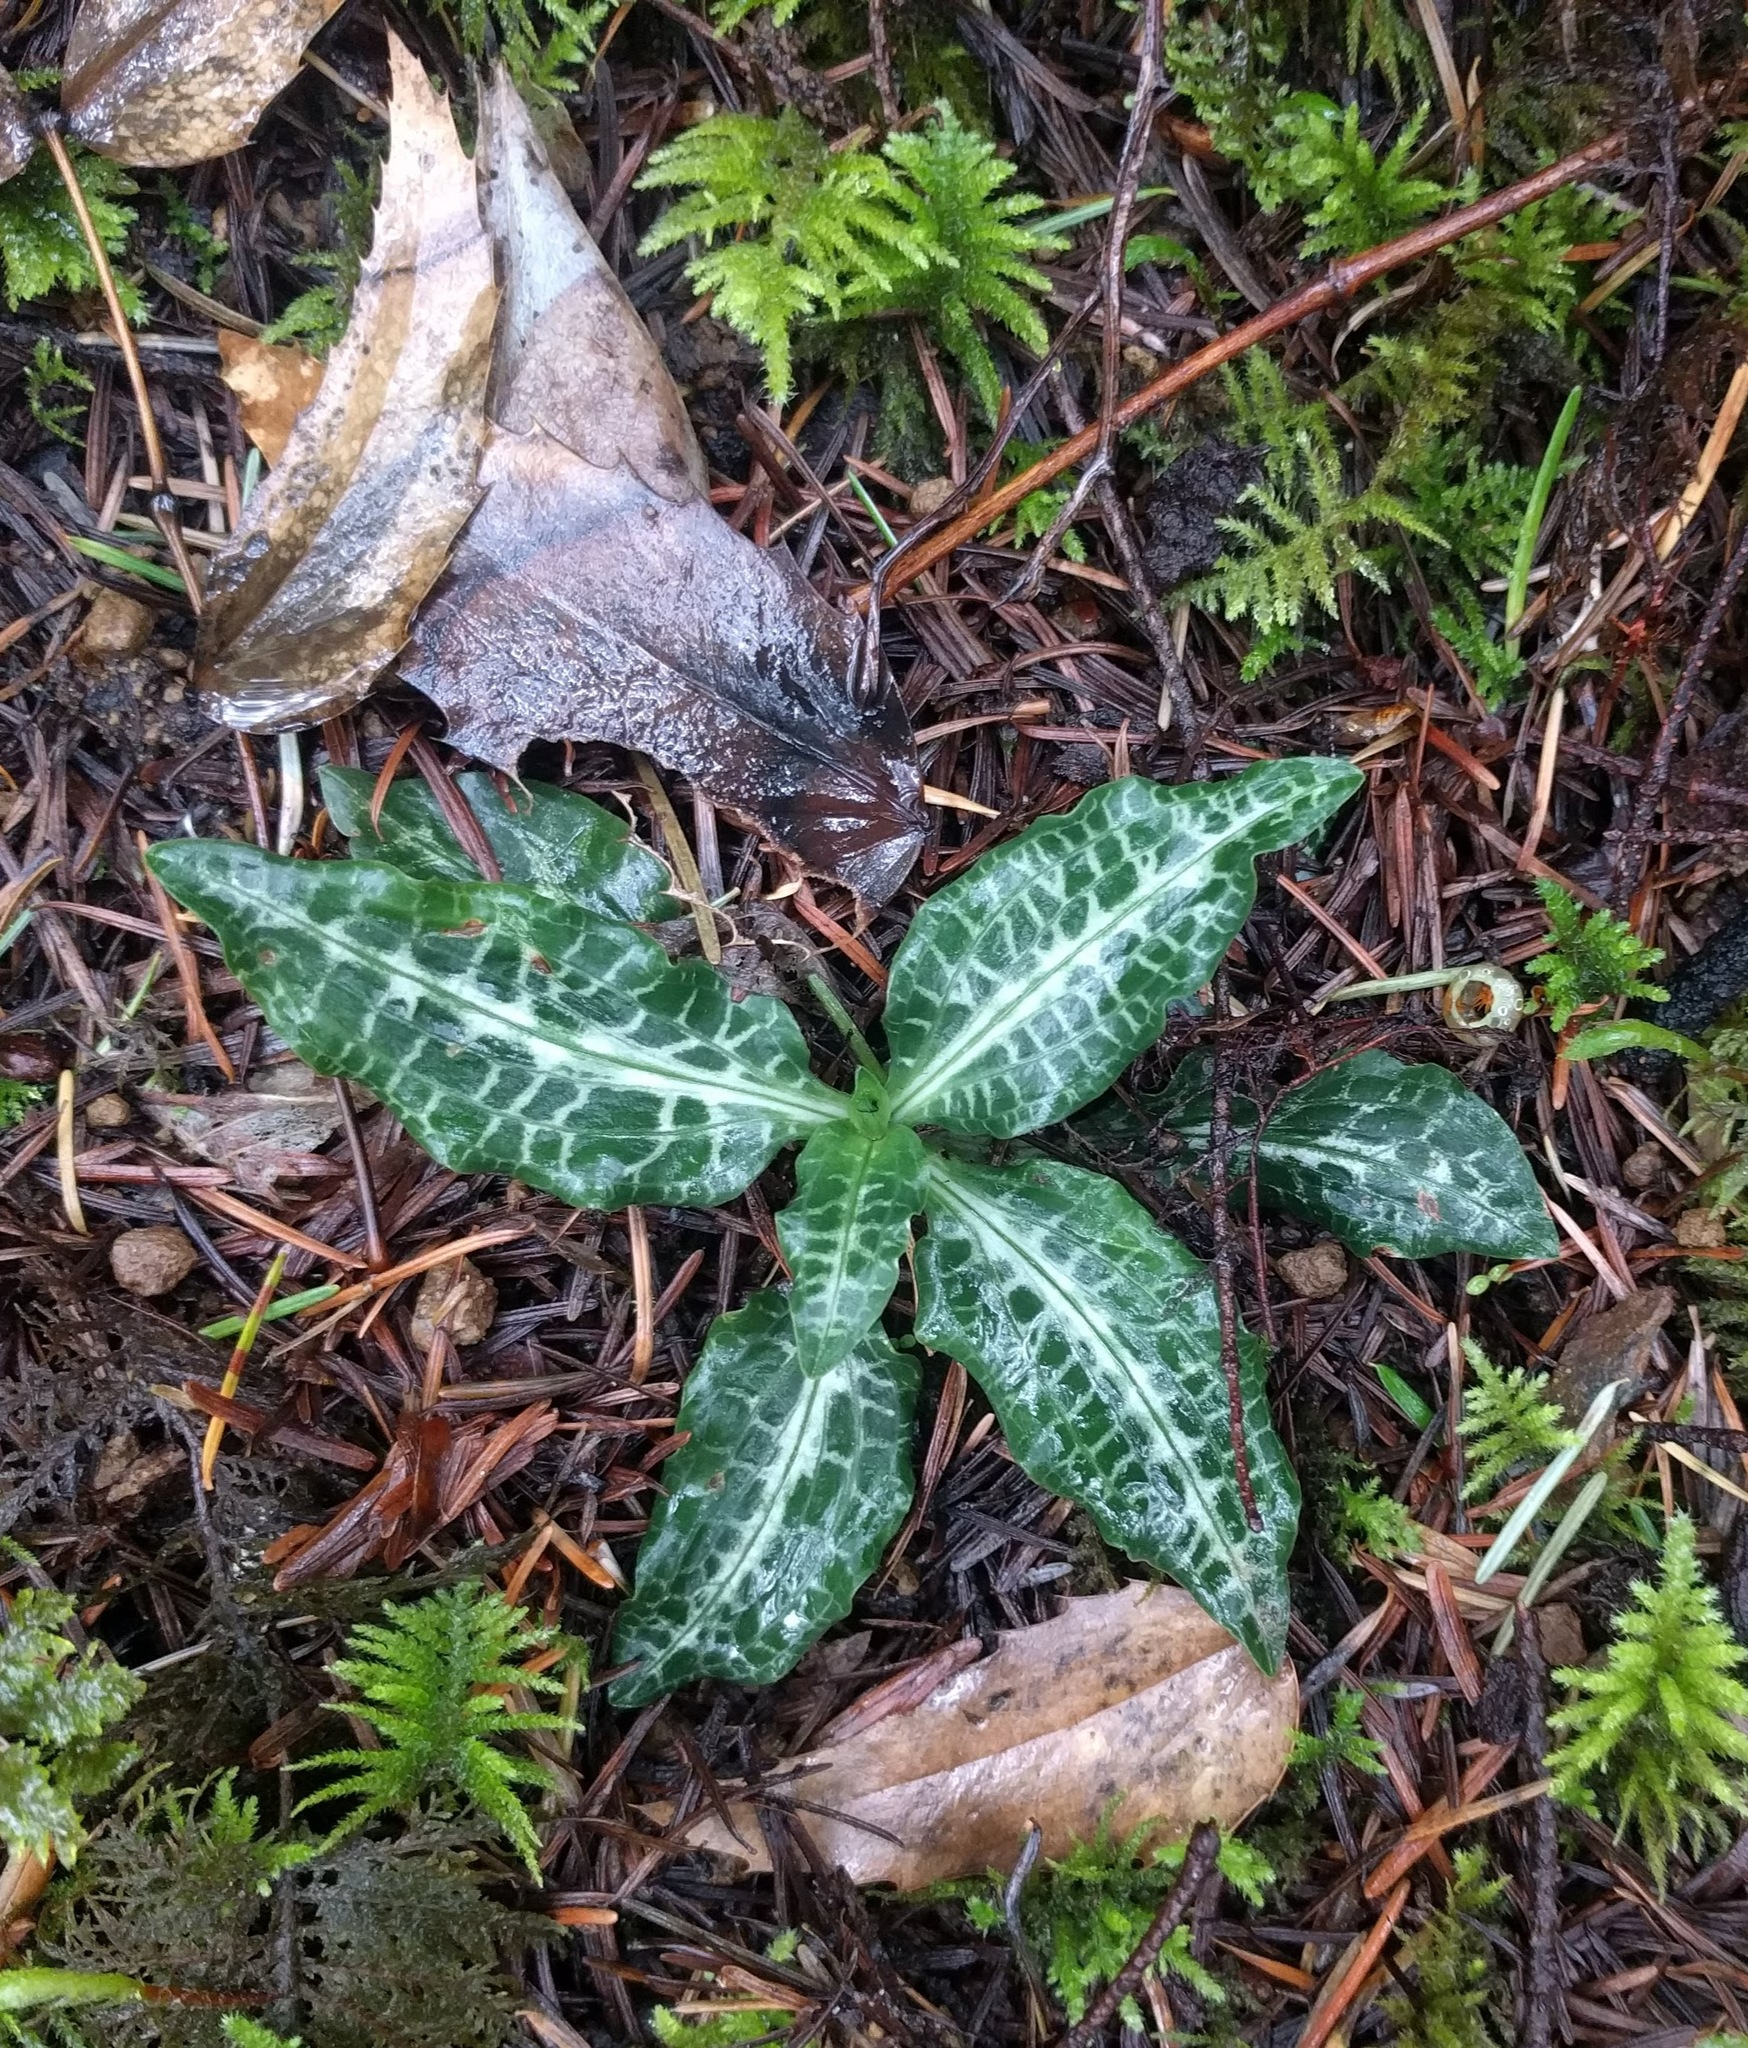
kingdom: Plantae
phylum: Tracheophyta
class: Liliopsida
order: Asparagales
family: Orchidaceae
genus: Goodyera
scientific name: Goodyera oblongifolia
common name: Giant rattlesnake-plantain
